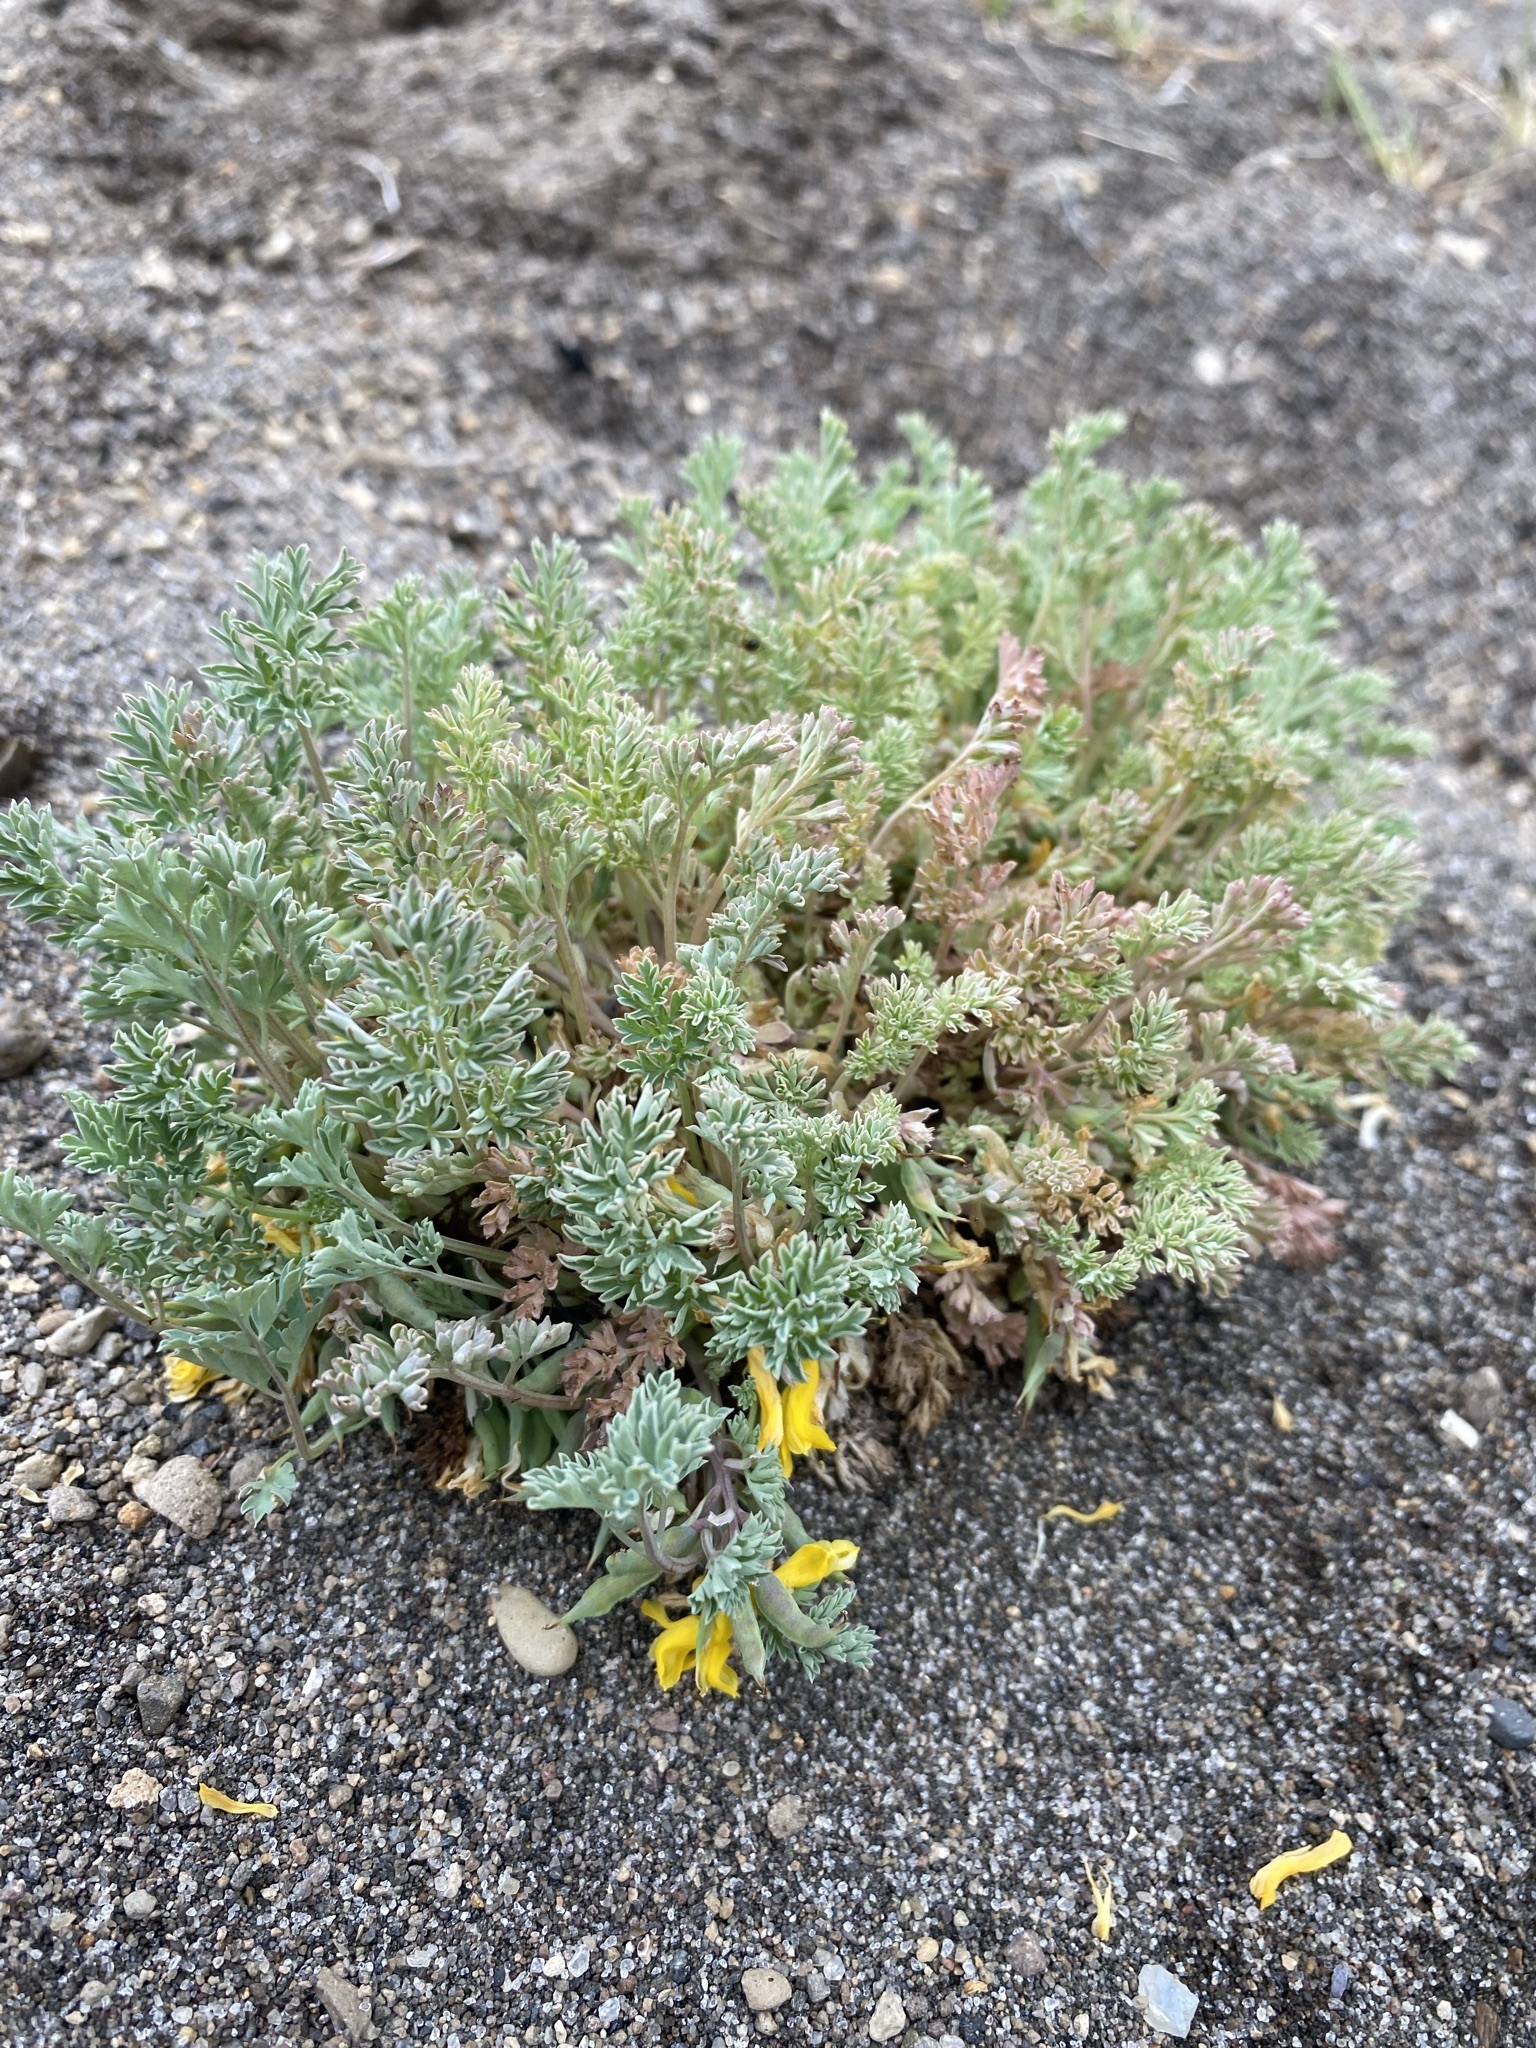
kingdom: Plantae
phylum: Tracheophyta
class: Magnoliopsida
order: Ranunculales
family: Papaveraceae
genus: Corydalis
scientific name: Corydalis aurea
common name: Golden corydalis
